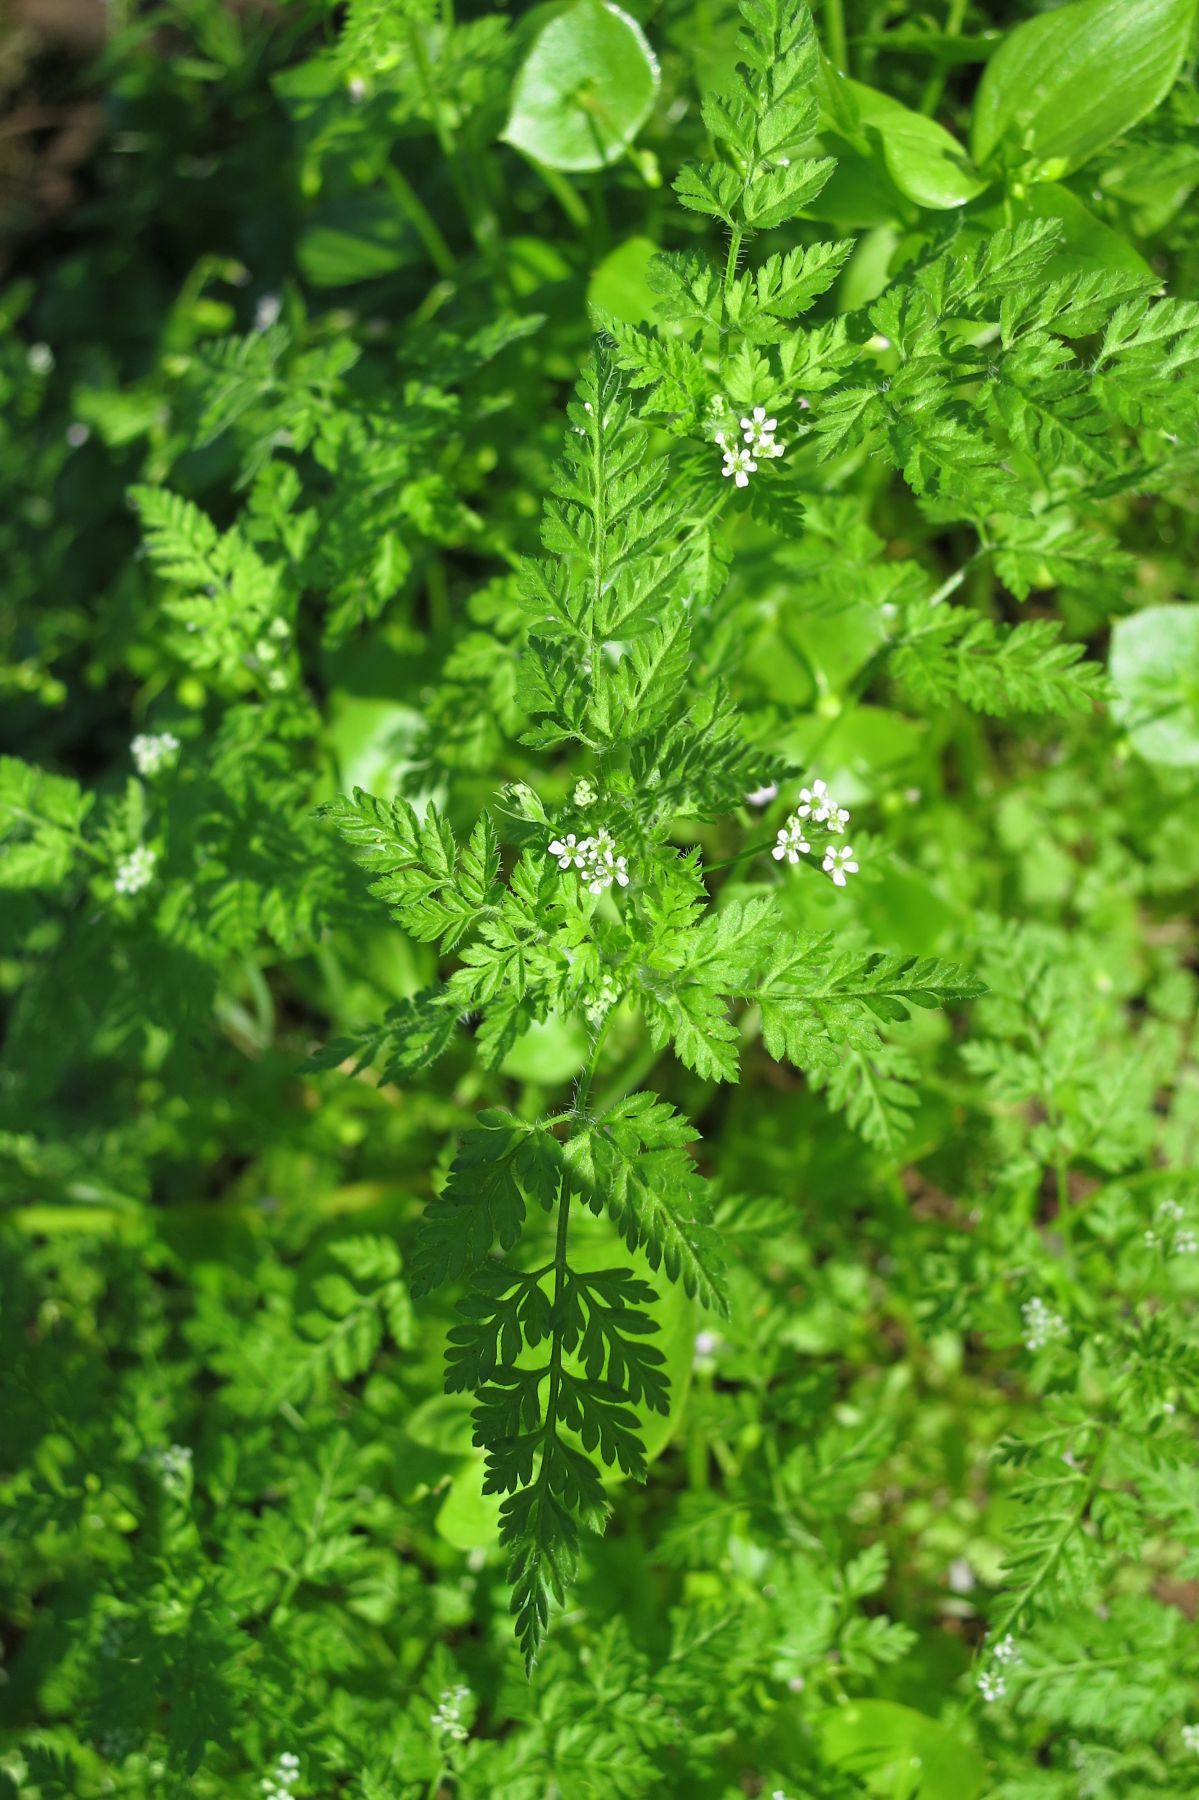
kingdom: Plantae
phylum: Tracheophyta
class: Magnoliopsida
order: Apiales
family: Apiaceae
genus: Anthriscus
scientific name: Anthriscus caucalis
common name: Bur chervil
